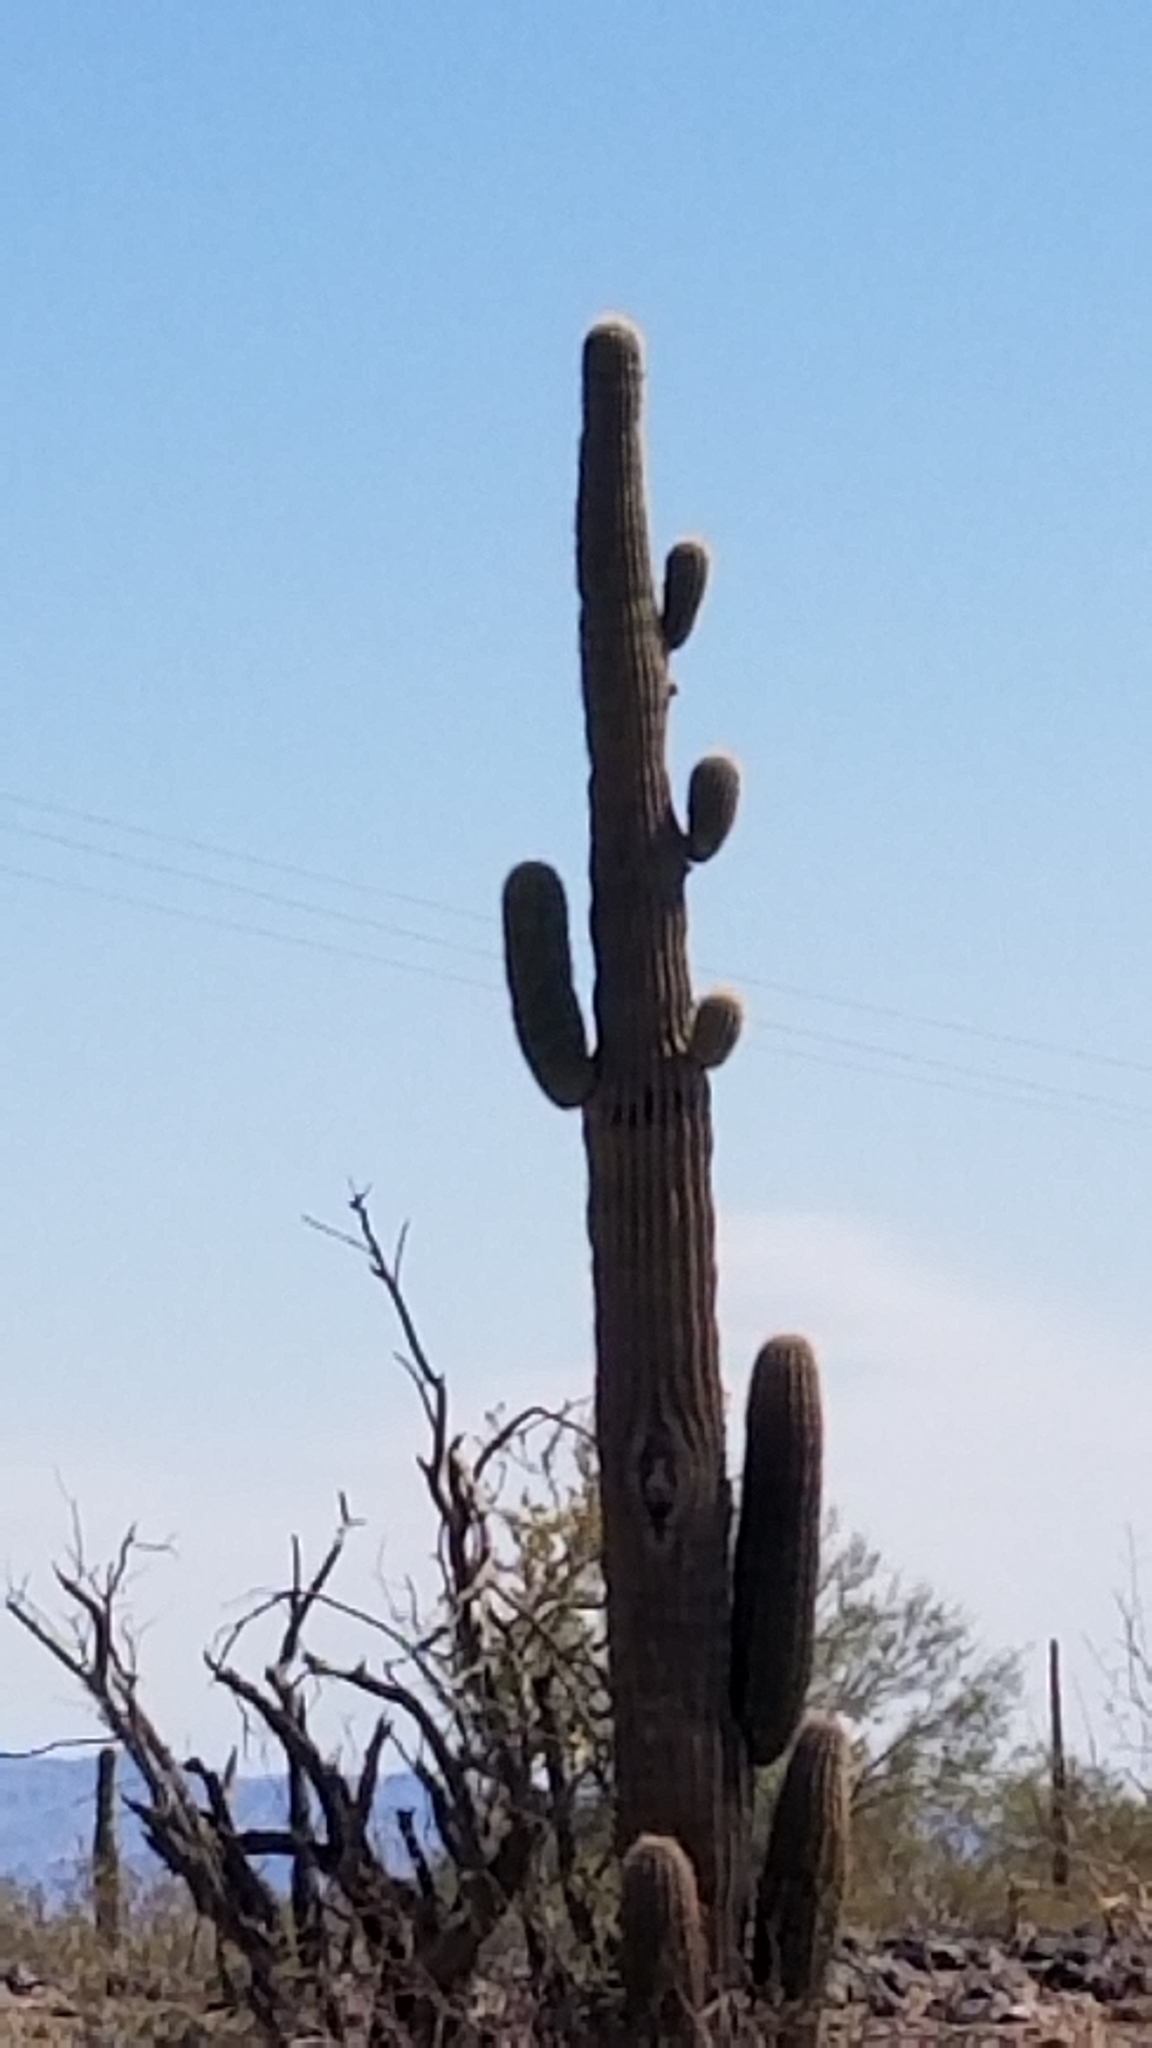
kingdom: Plantae
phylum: Tracheophyta
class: Magnoliopsida
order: Caryophyllales
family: Cactaceae
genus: Carnegiea
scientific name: Carnegiea gigantea
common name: Saguaro
